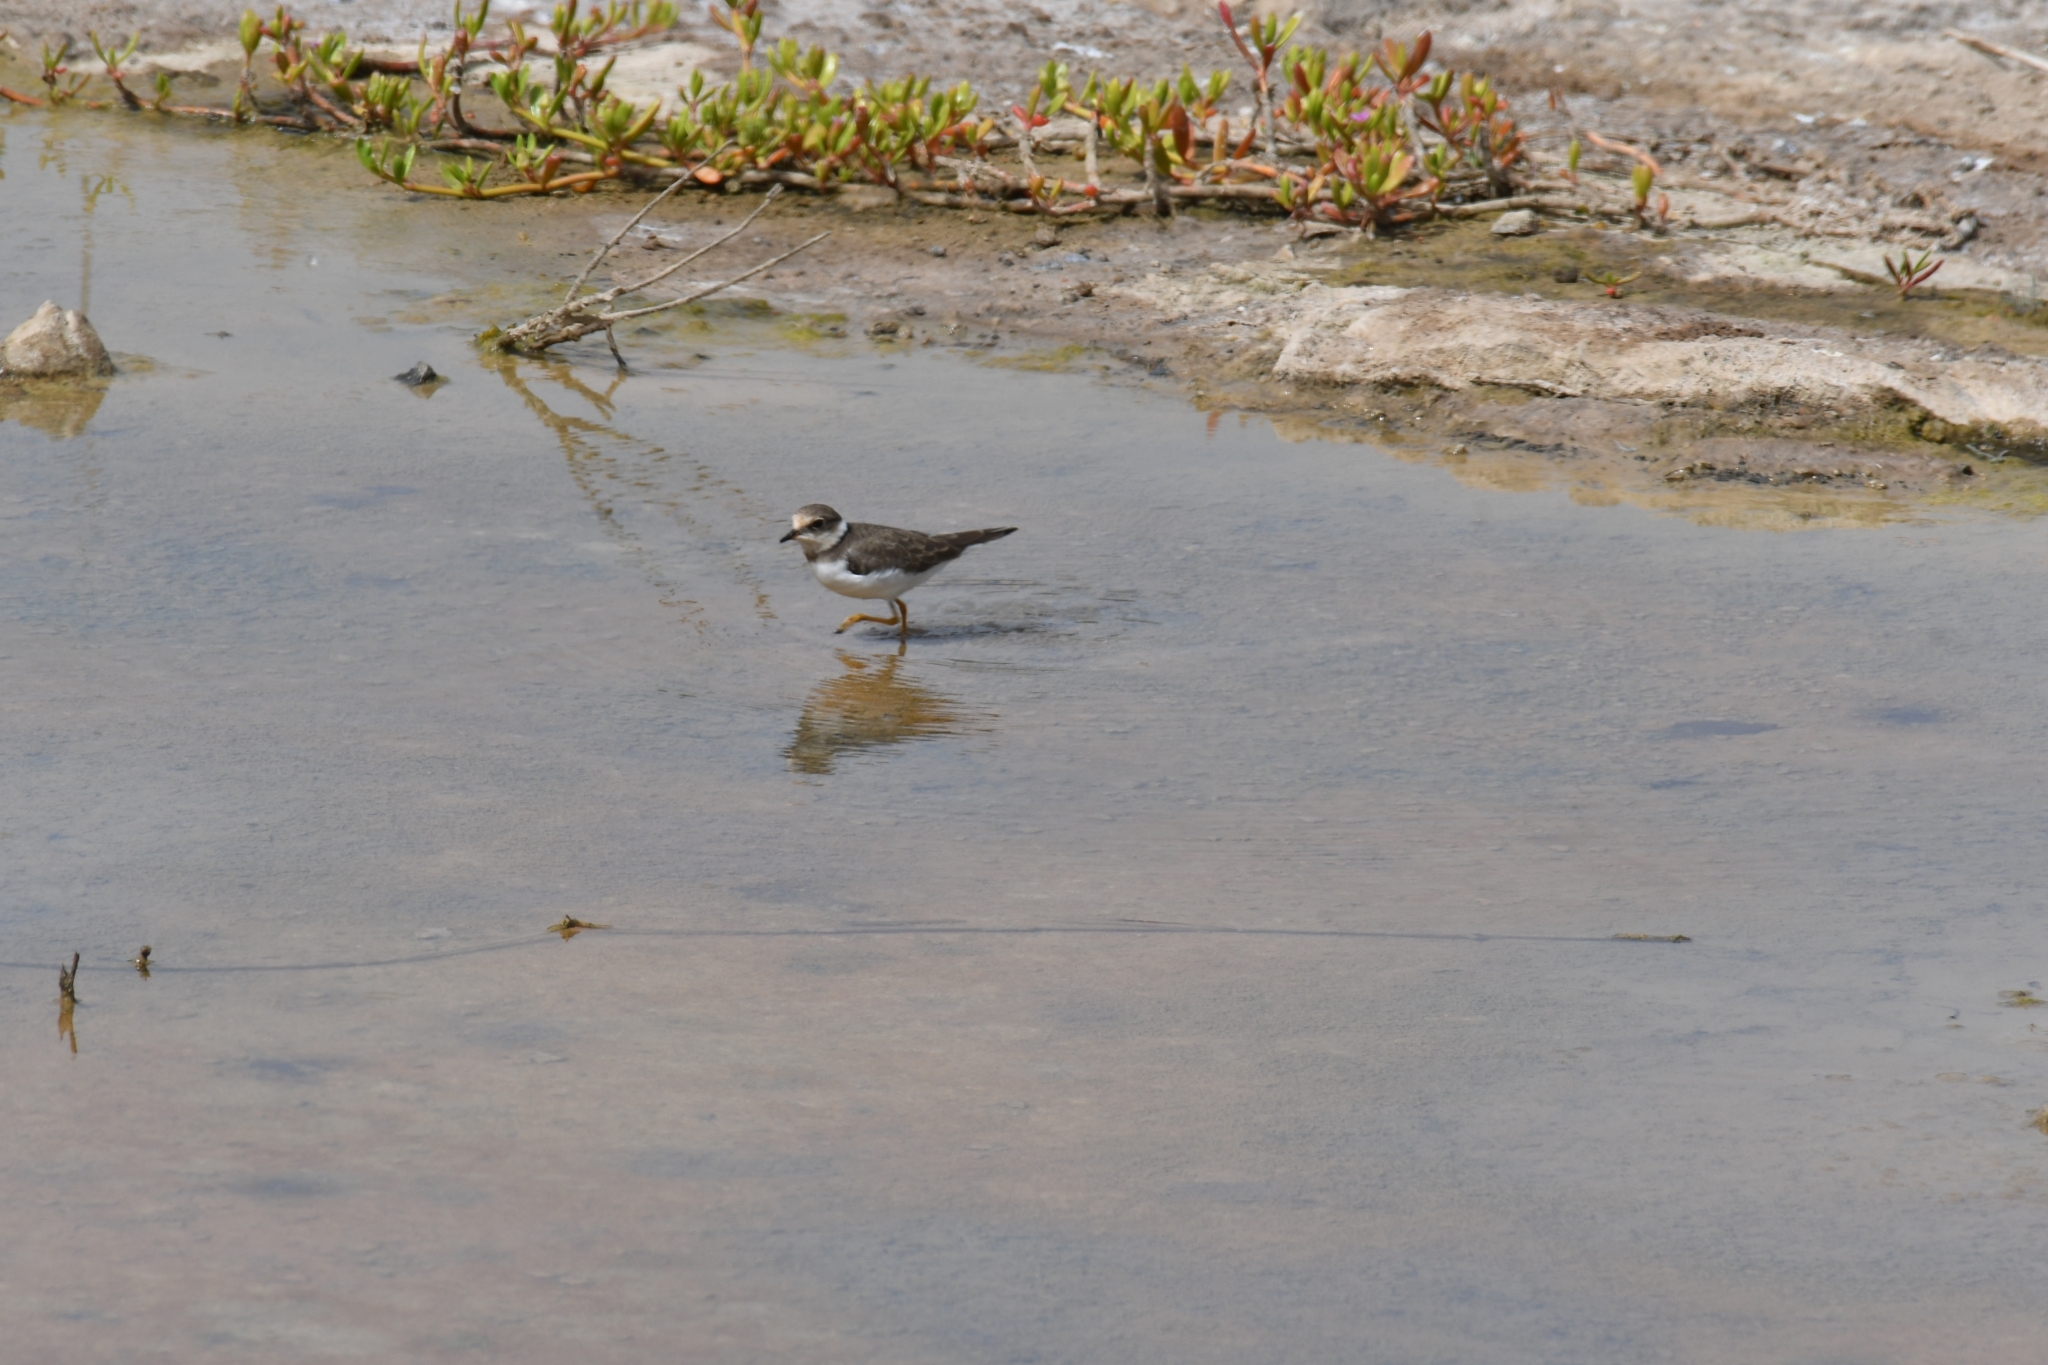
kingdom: Animalia
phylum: Chordata
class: Aves
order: Charadriiformes
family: Charadriidae
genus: Charadrius
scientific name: Charadrius hiaticula
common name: Common ringed plover
